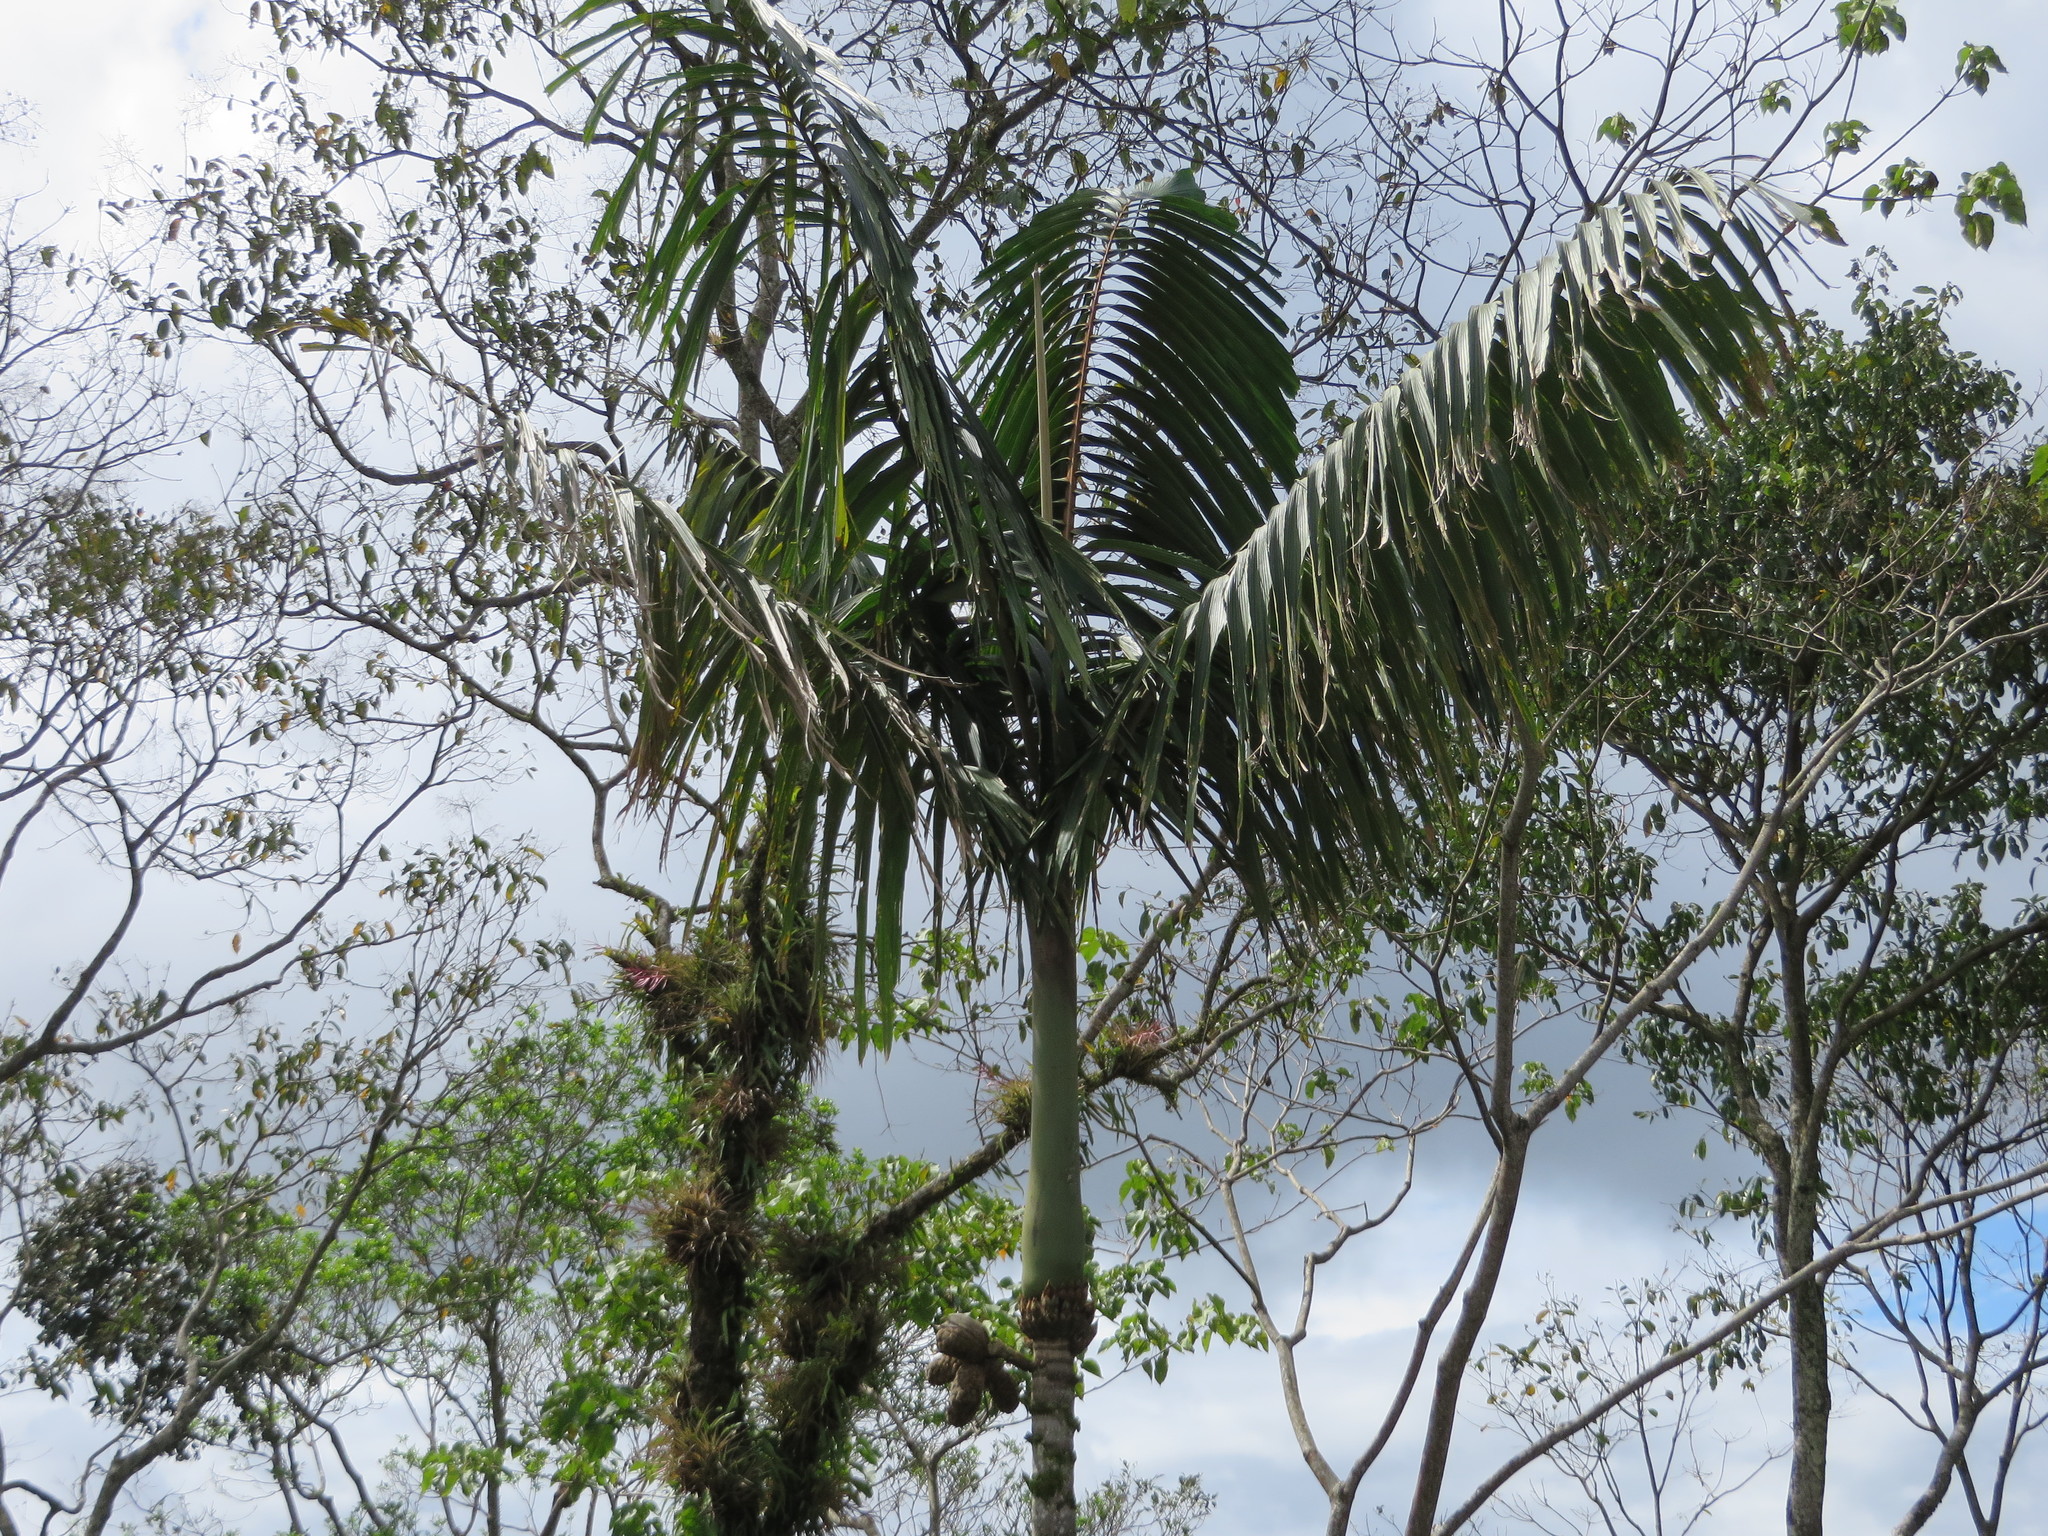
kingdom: Plantae
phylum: Tracheophyta
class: Liliopsida
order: Arecales
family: Arecaceae
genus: Wettinia
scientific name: Wettinia maynensis
